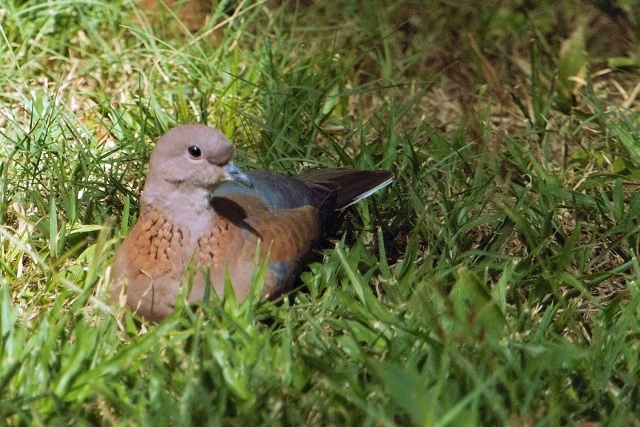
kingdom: Animalia
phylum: Chordata
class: Aves
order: Columbiformes
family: Columbidae
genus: Spilopelia
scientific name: Spilopelia senegalensis
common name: Laughing dove
